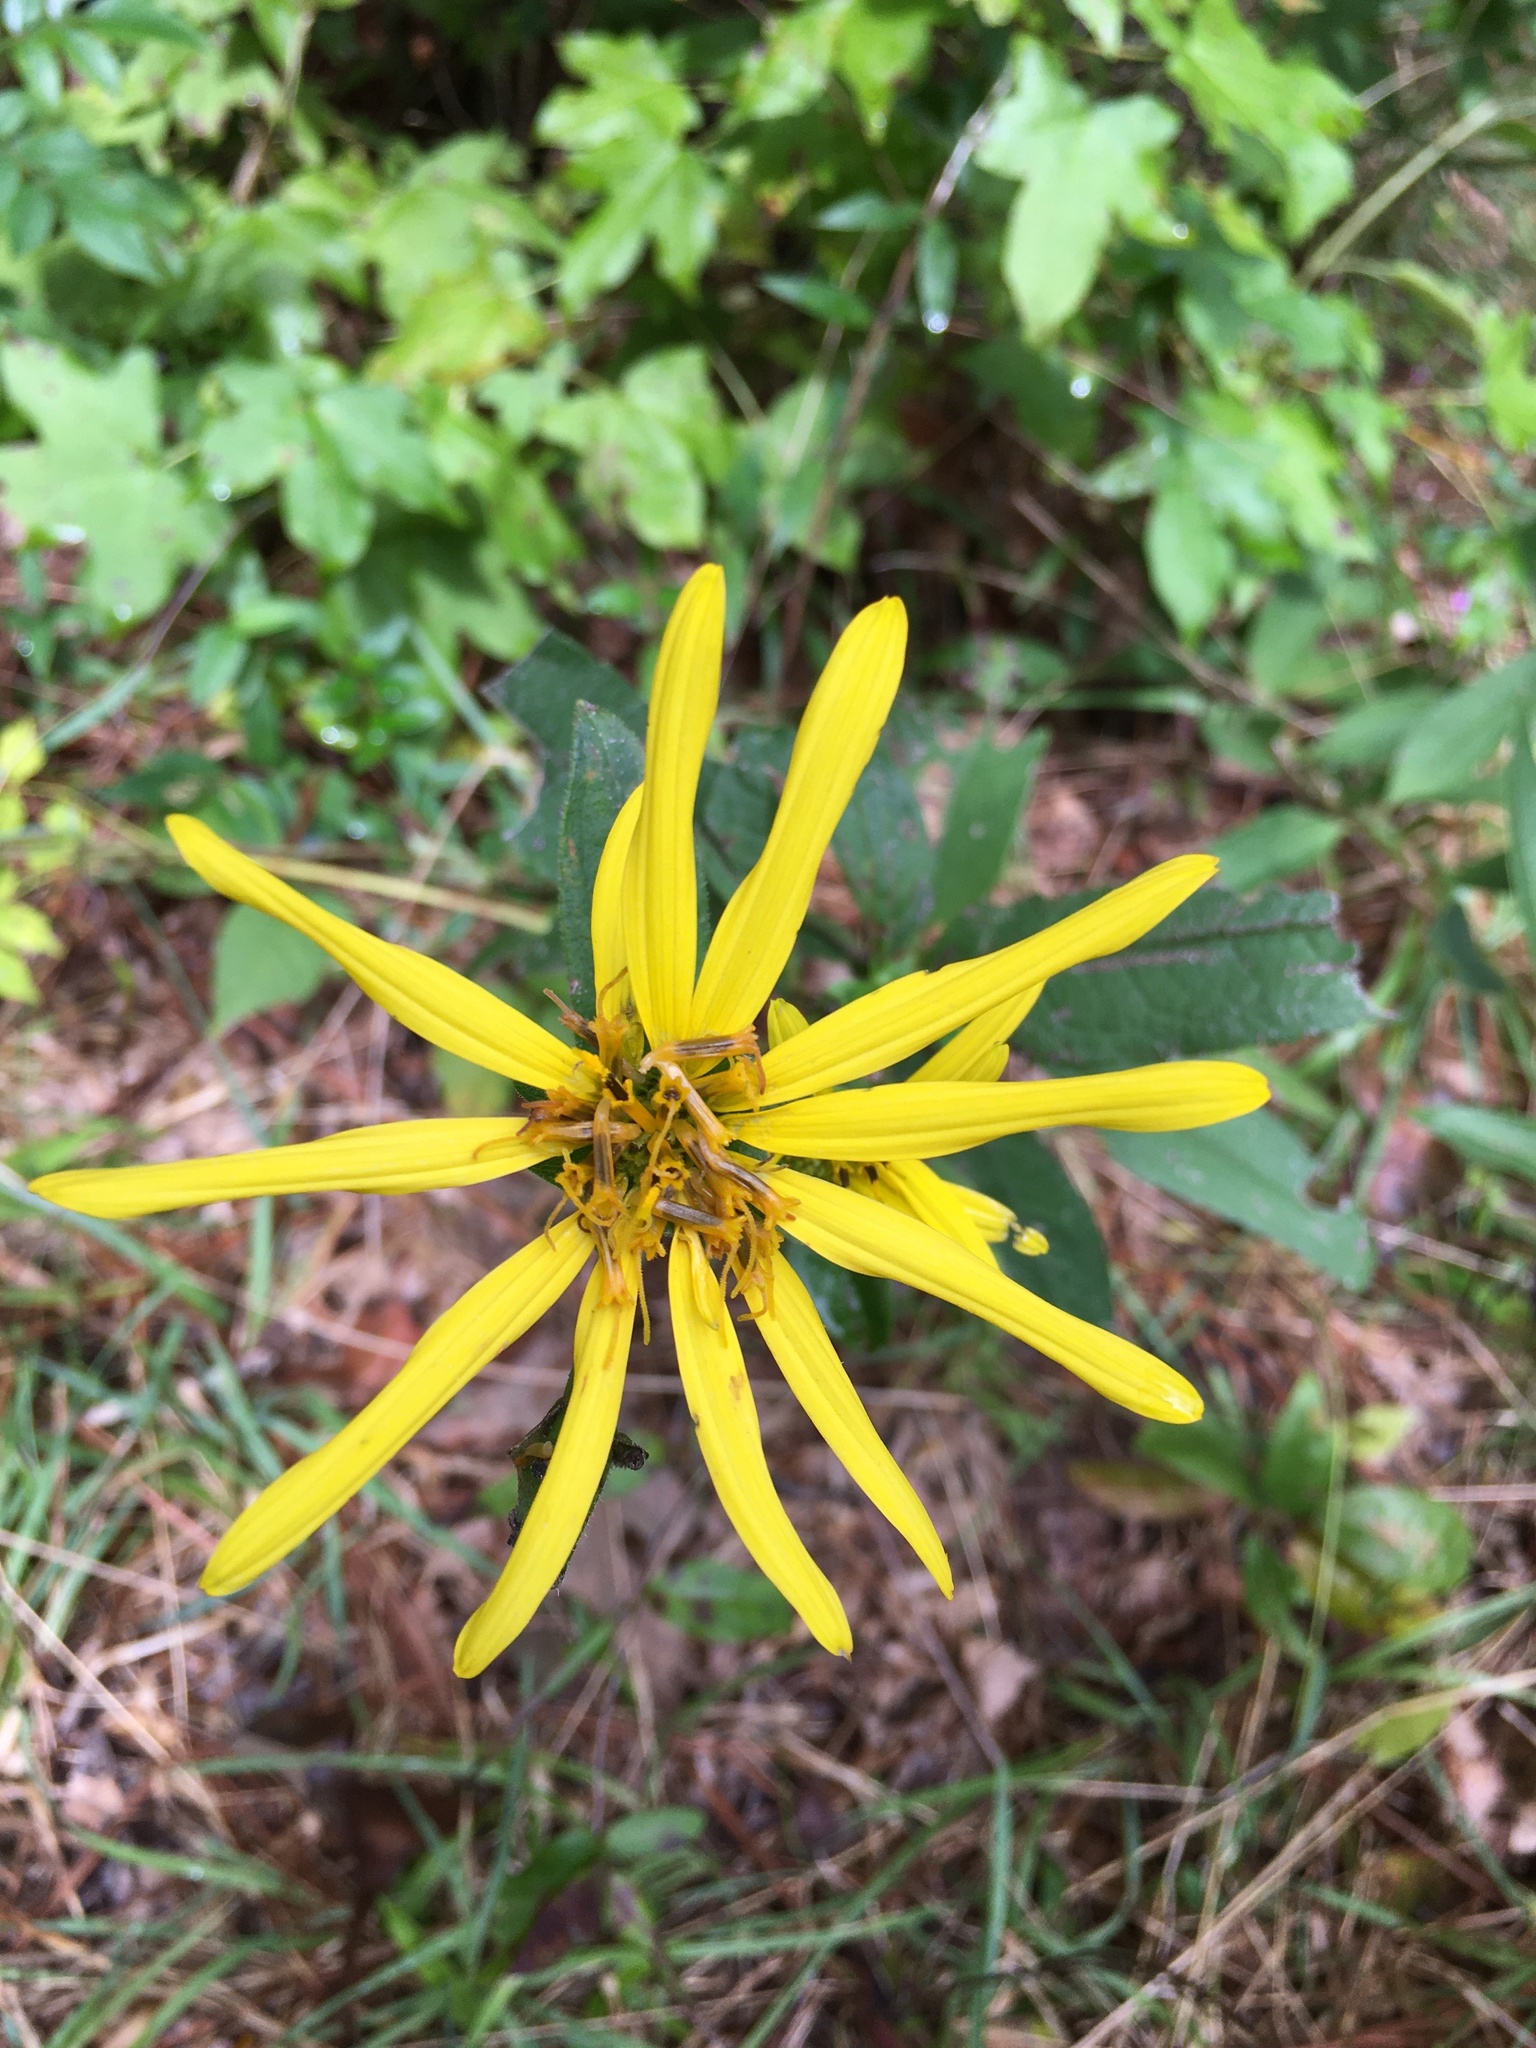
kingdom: Plantae
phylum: Tracheophyta
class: Magnoliopsida
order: Asterales
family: Asteraceae
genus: Silphium
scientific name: Silphium asteriscus
